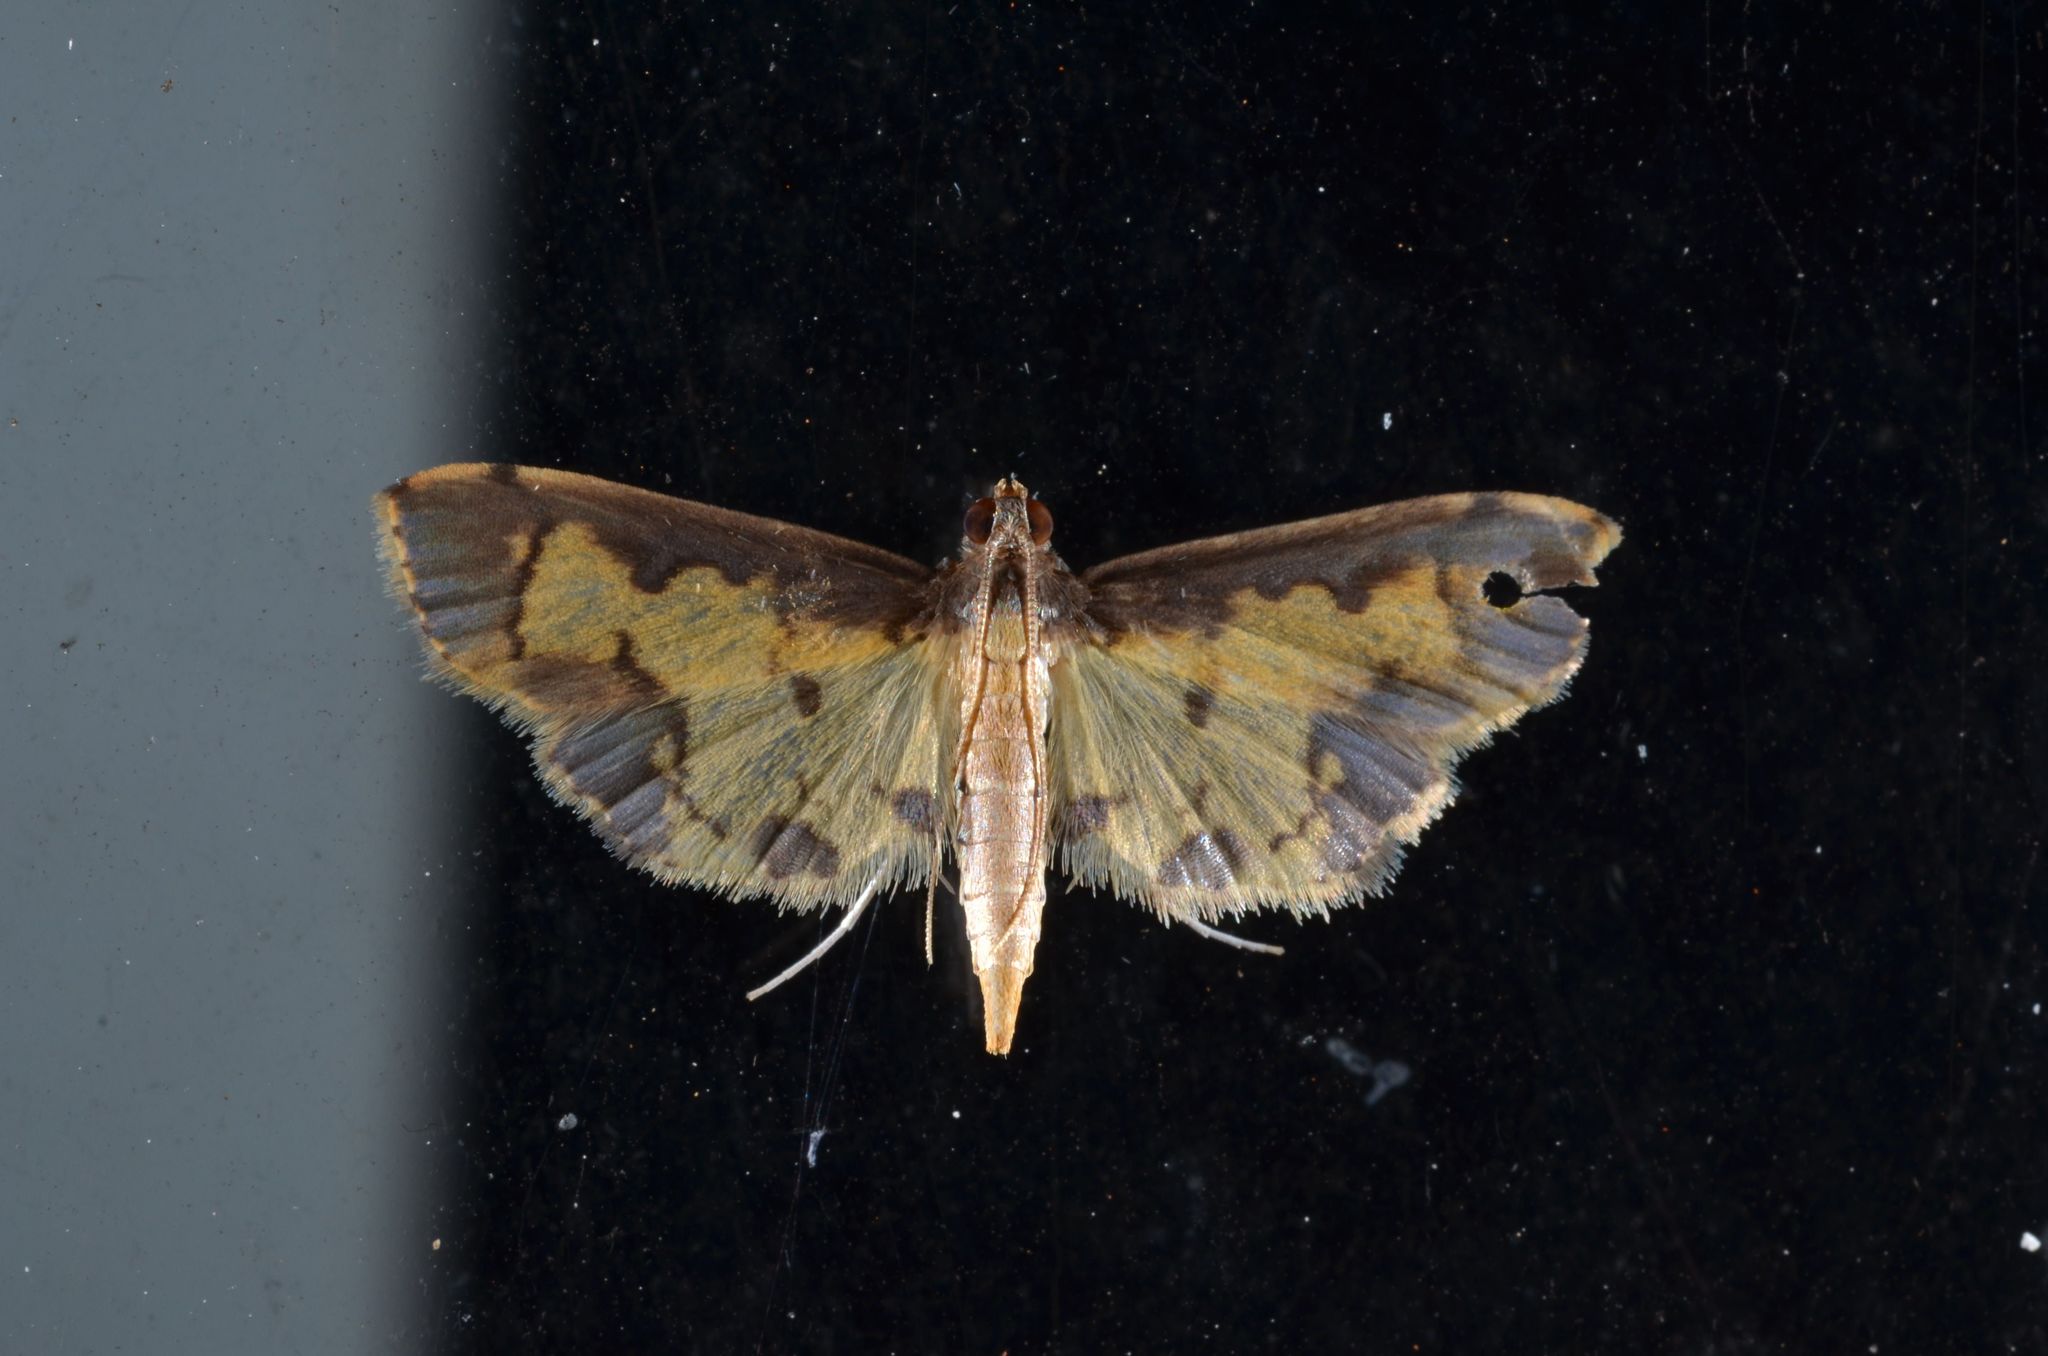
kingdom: Animalia
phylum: Arthropoda
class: Insecta
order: Lepidoptera
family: Crambidae
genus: Agrotera
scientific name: Agrotera
